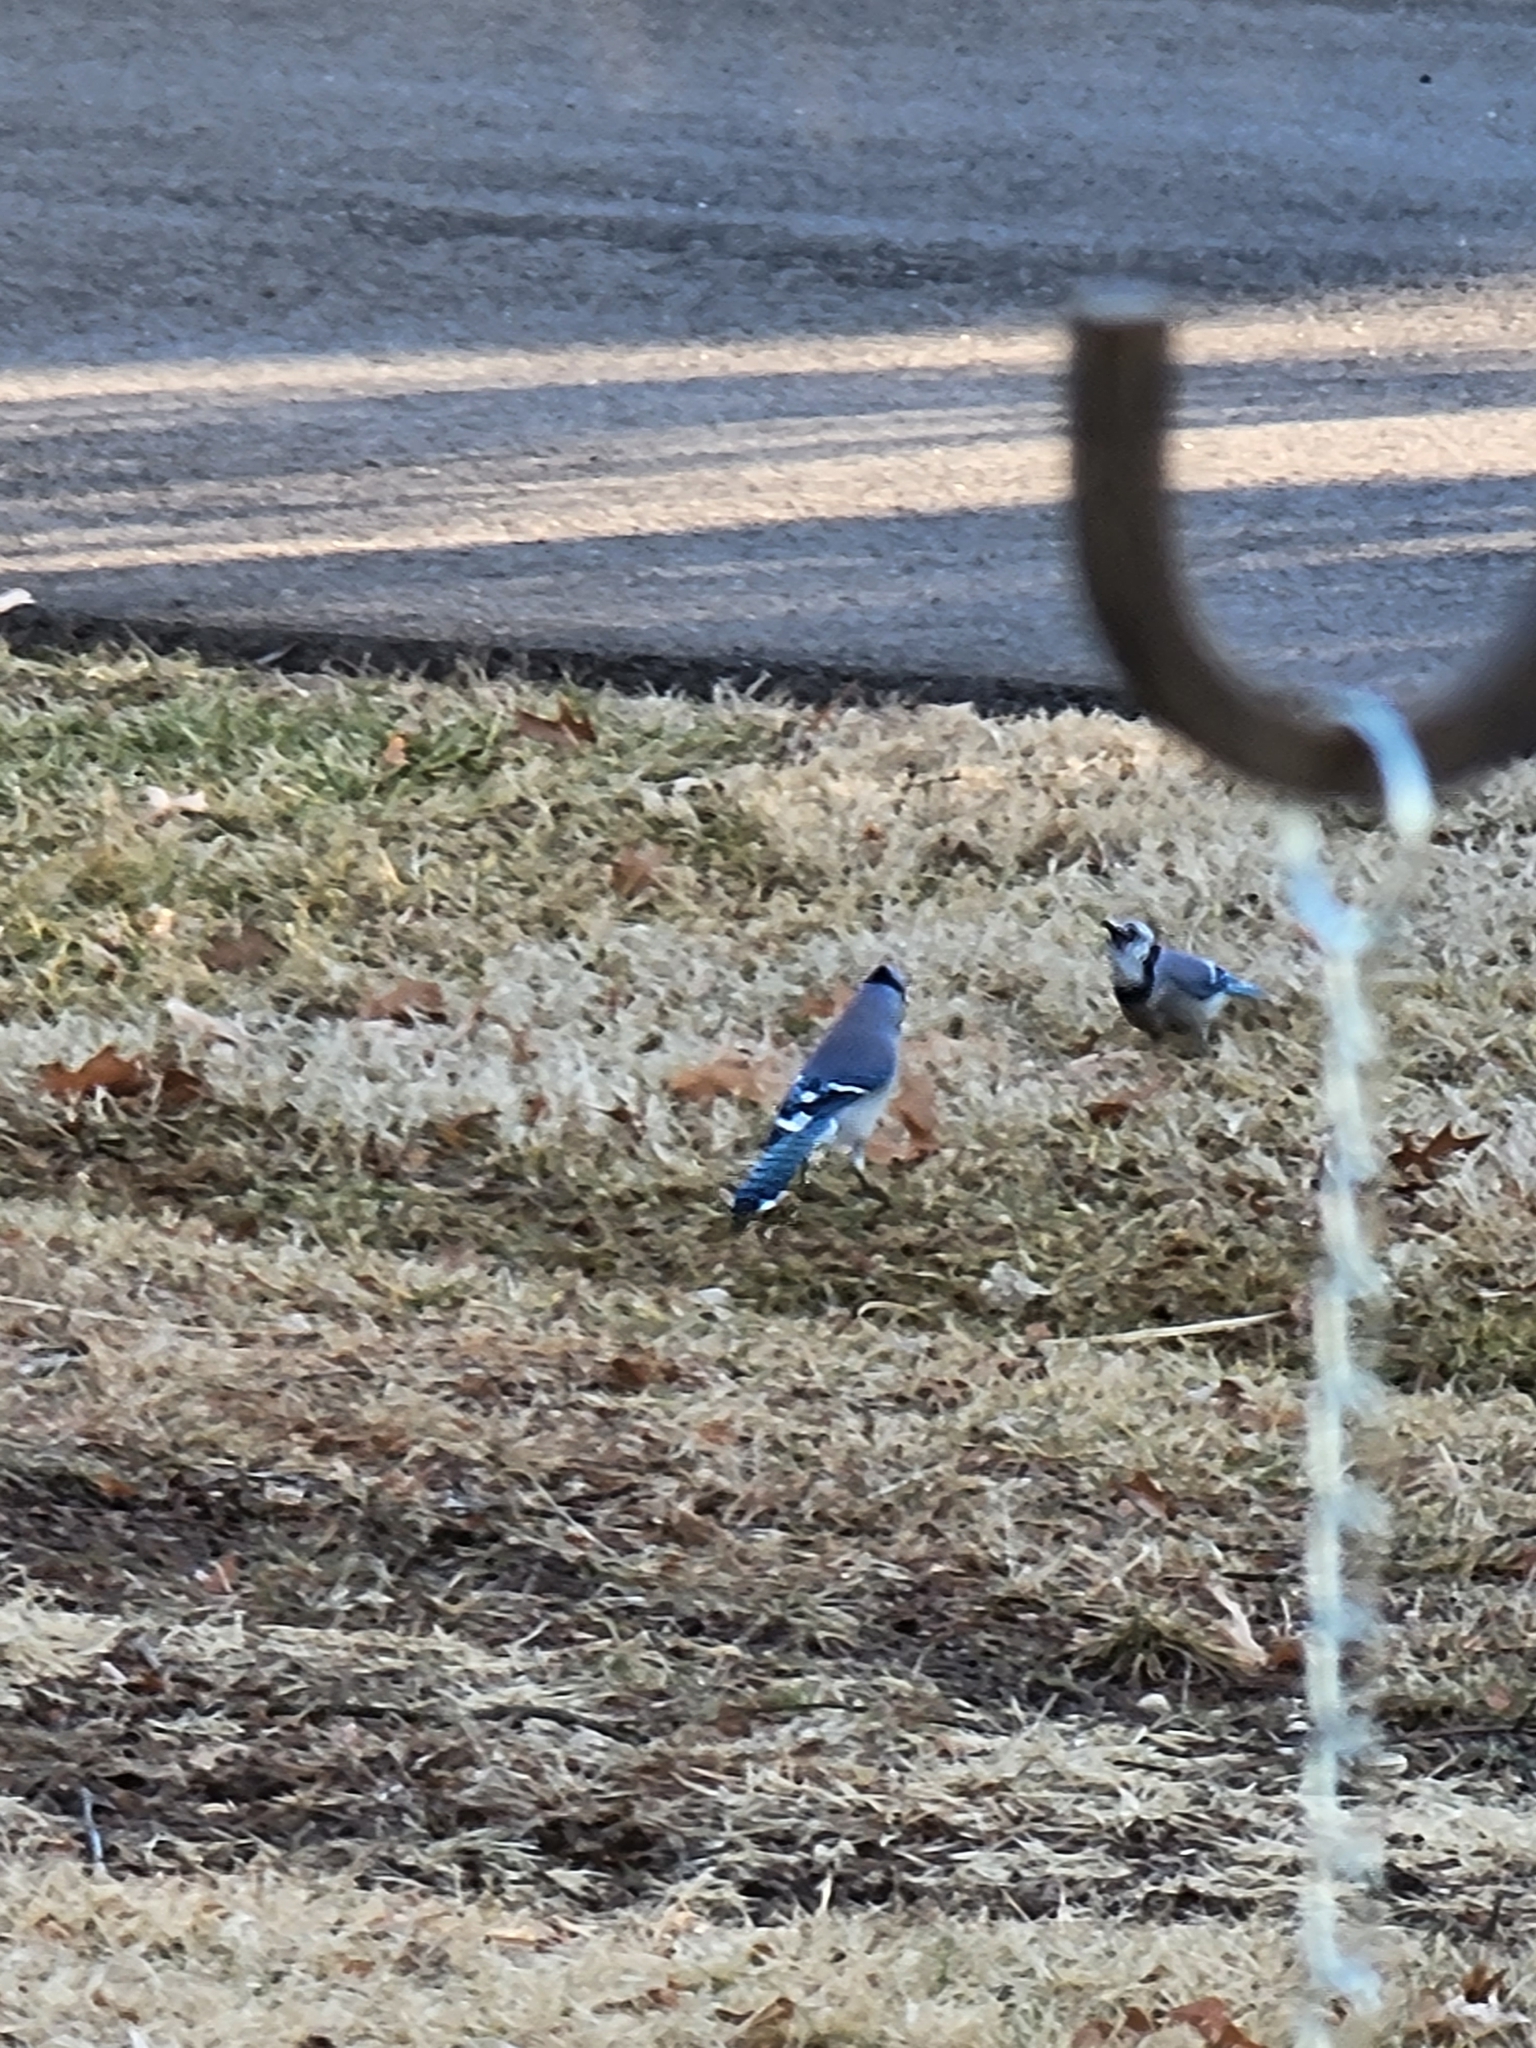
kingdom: Animalia
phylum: Chordata
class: Aves
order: Passeriformes
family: Corvidae
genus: Cyanocitta
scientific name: Cyanocitta cristata
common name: Blue jay
